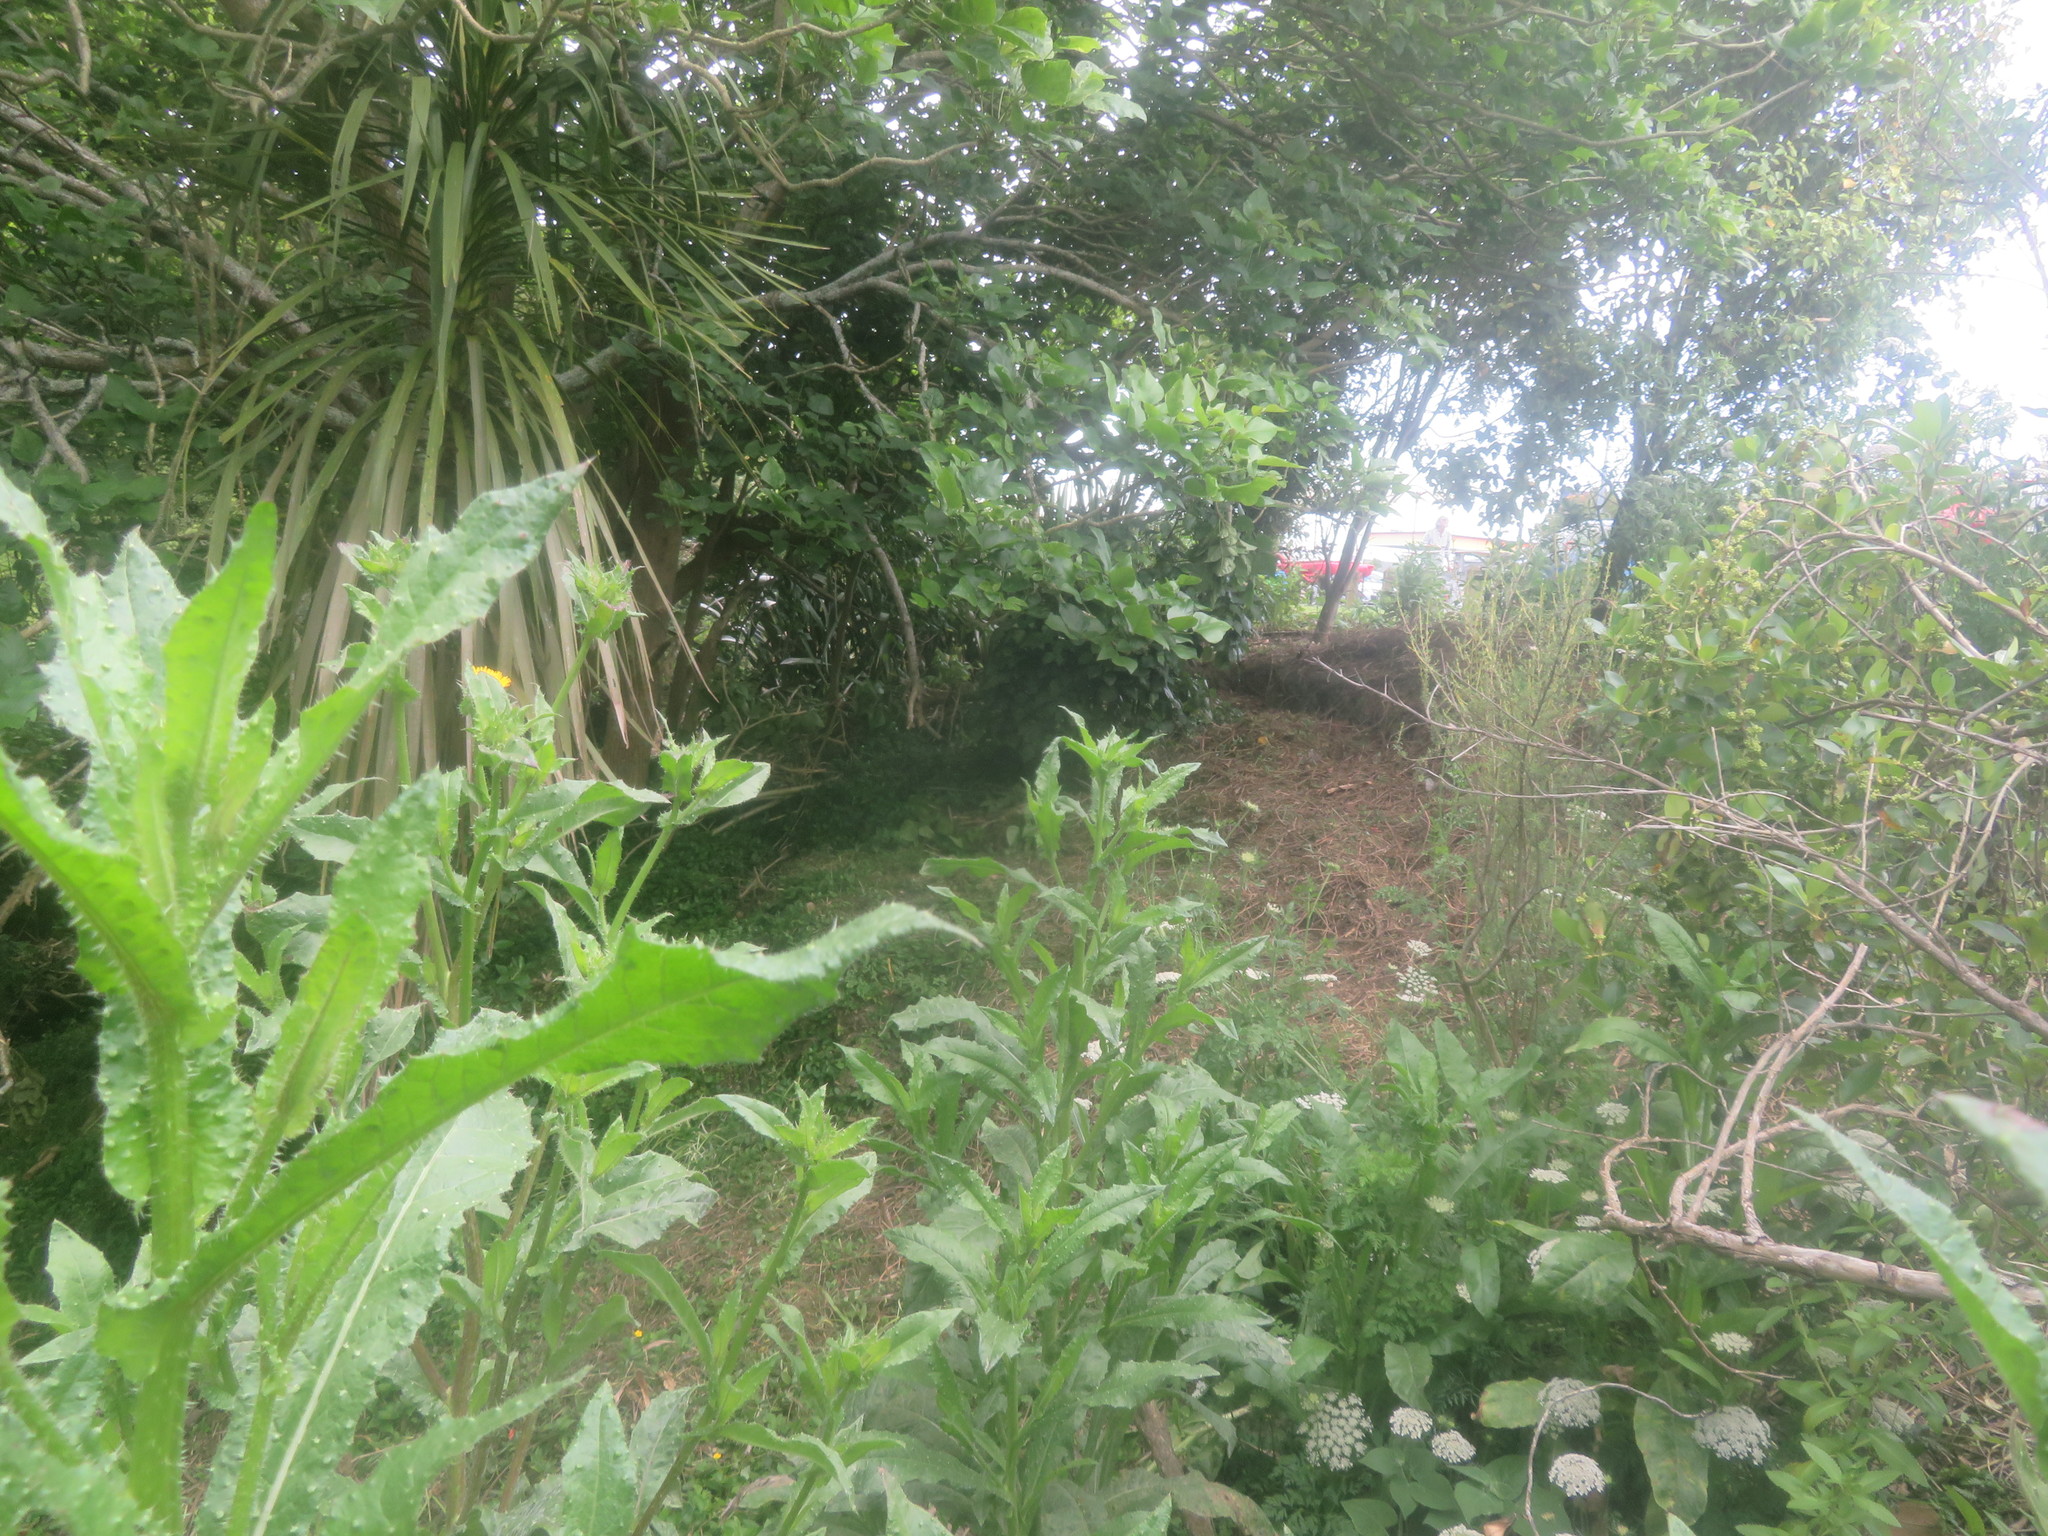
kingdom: Plantae
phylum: Tracheophyta
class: Magnoliopsida
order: Fabales
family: Fabaceae
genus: Erythrina
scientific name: Erythrina sykesii
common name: Coraltree
